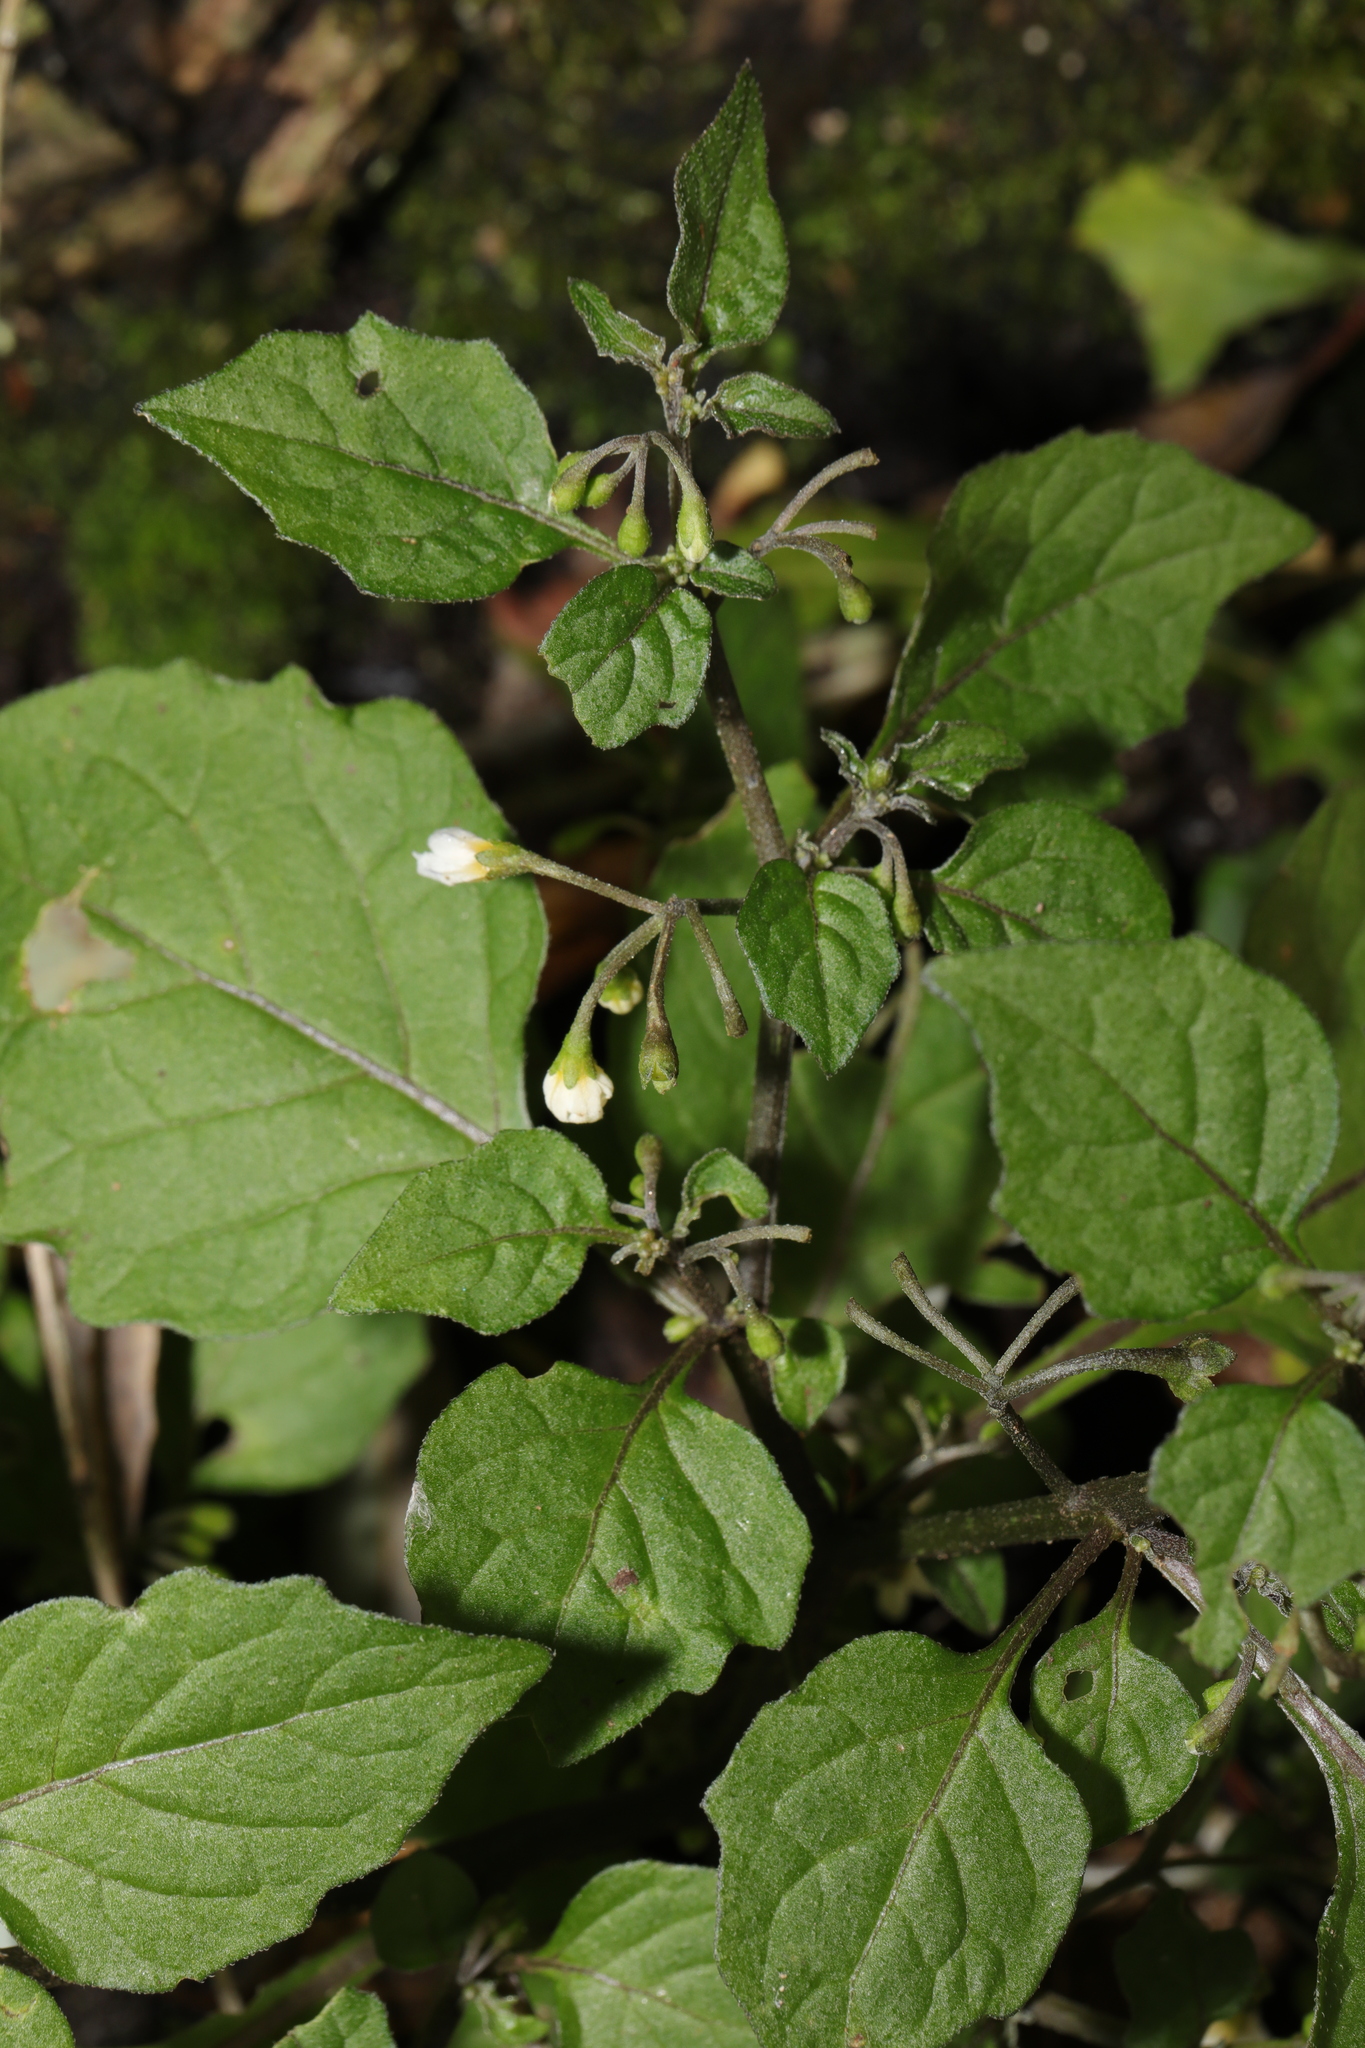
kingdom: Plantae
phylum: Tracheophyta
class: Magnoliopsida
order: Solanales
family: Solanaceae
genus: Solanum
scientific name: Solanum nigrum
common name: Black nightshade
